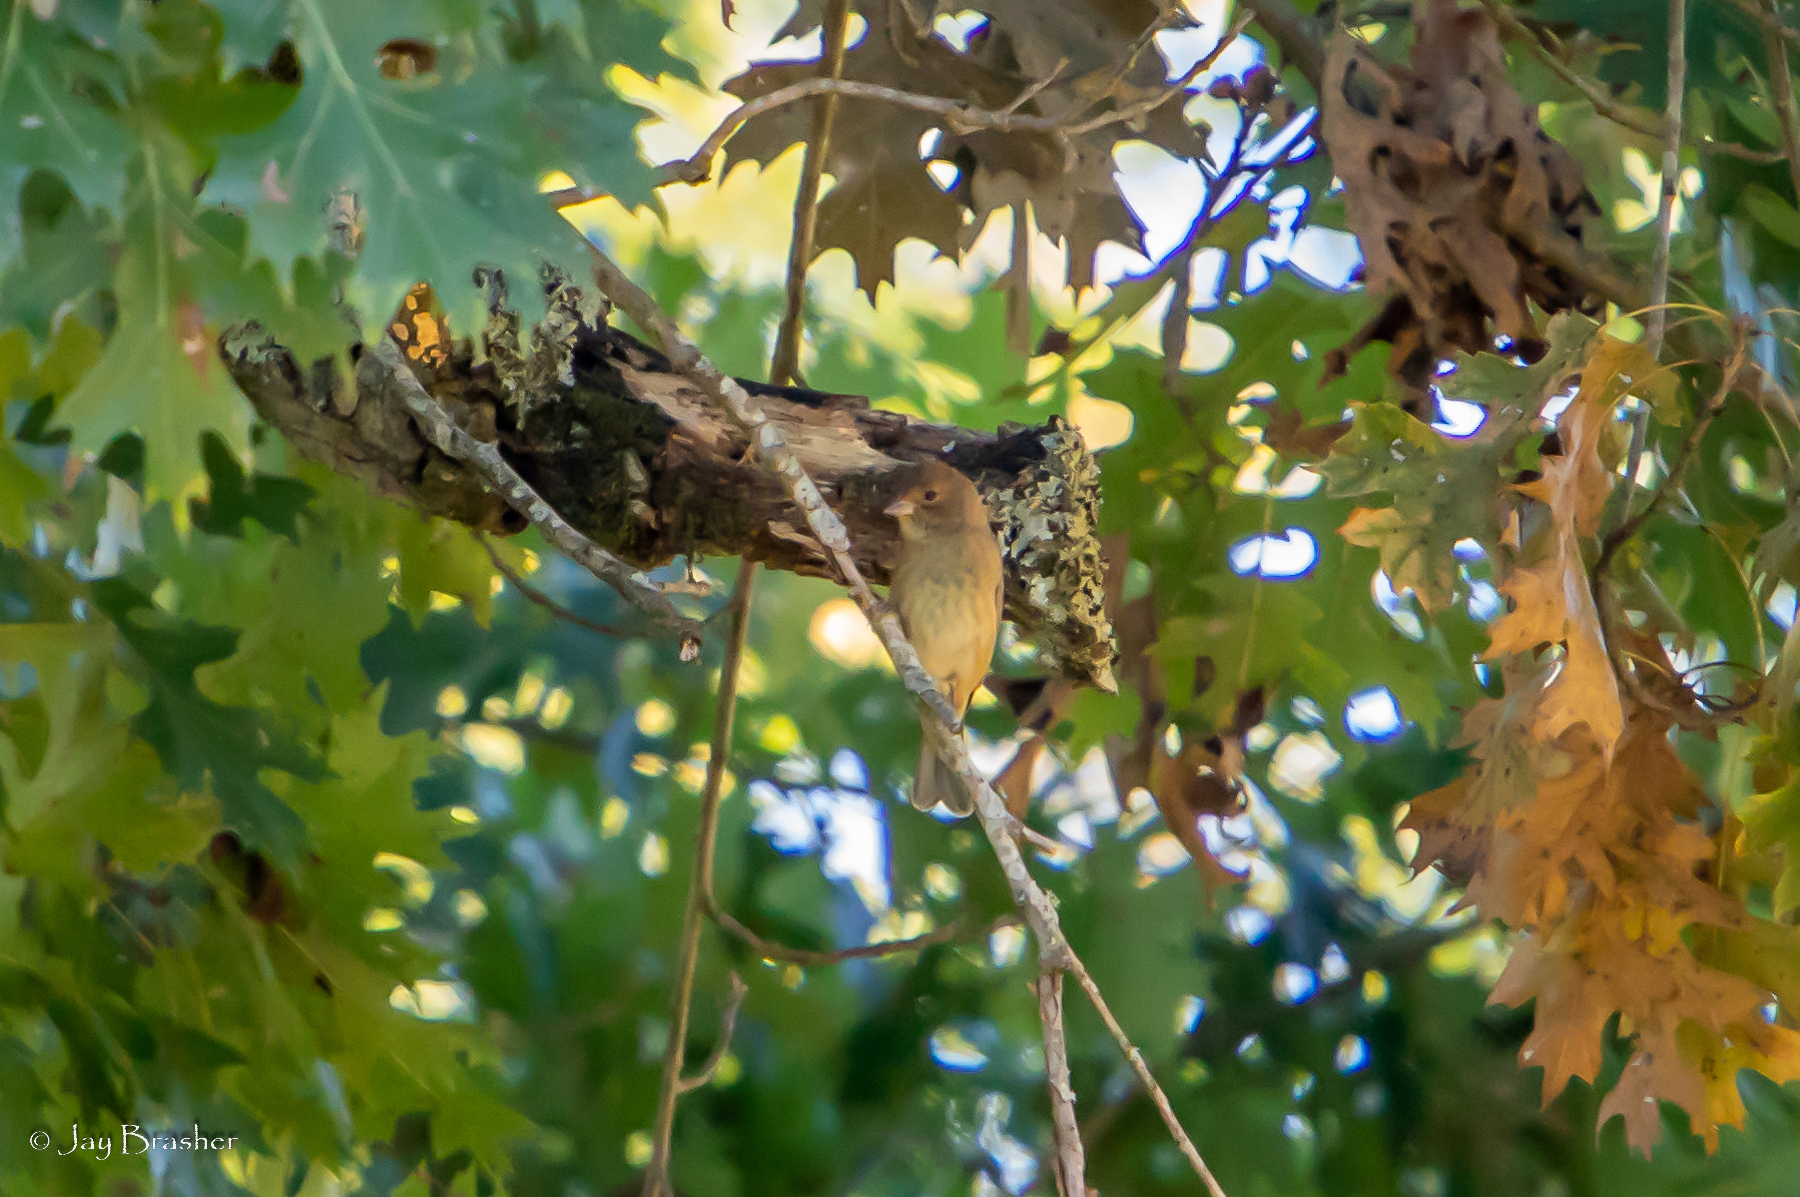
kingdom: Animalia
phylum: Chordata
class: Aves
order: Passeriformes
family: Cardinalidae
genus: Passerina
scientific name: Passerina cyanea
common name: Indigo bunting
